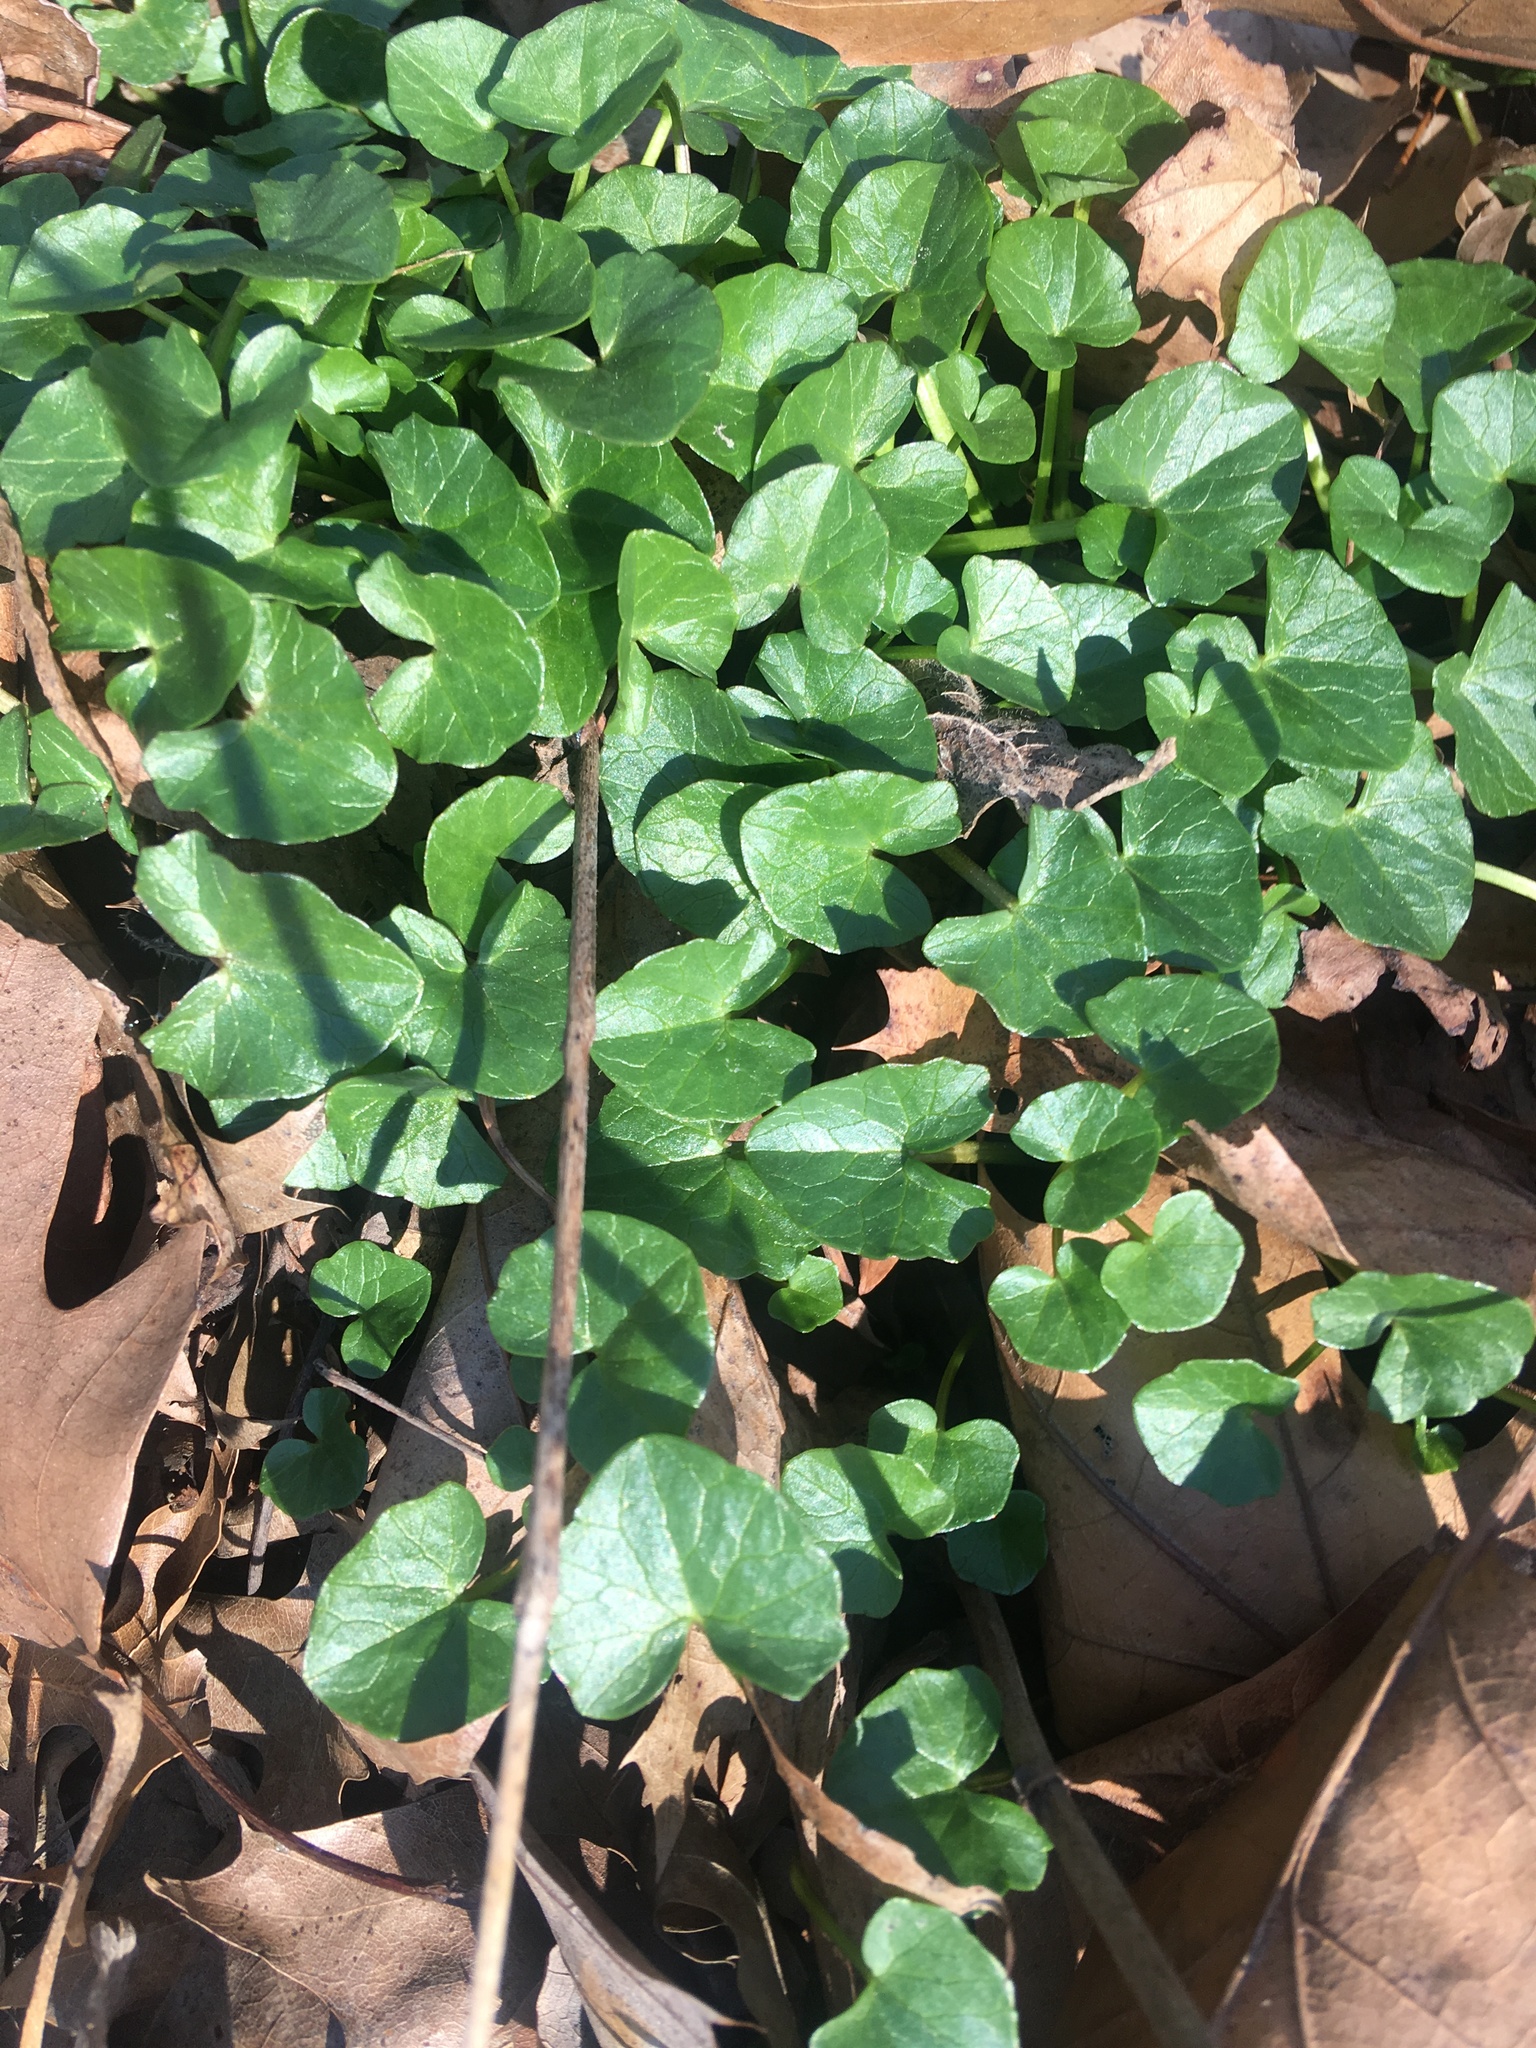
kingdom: Plantae
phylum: Tracheophyta
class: Magnoliopsida
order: Ranunculales
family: Ranunculaceae
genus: Ficaria
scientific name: Ficaria verna
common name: Lesser celandine
